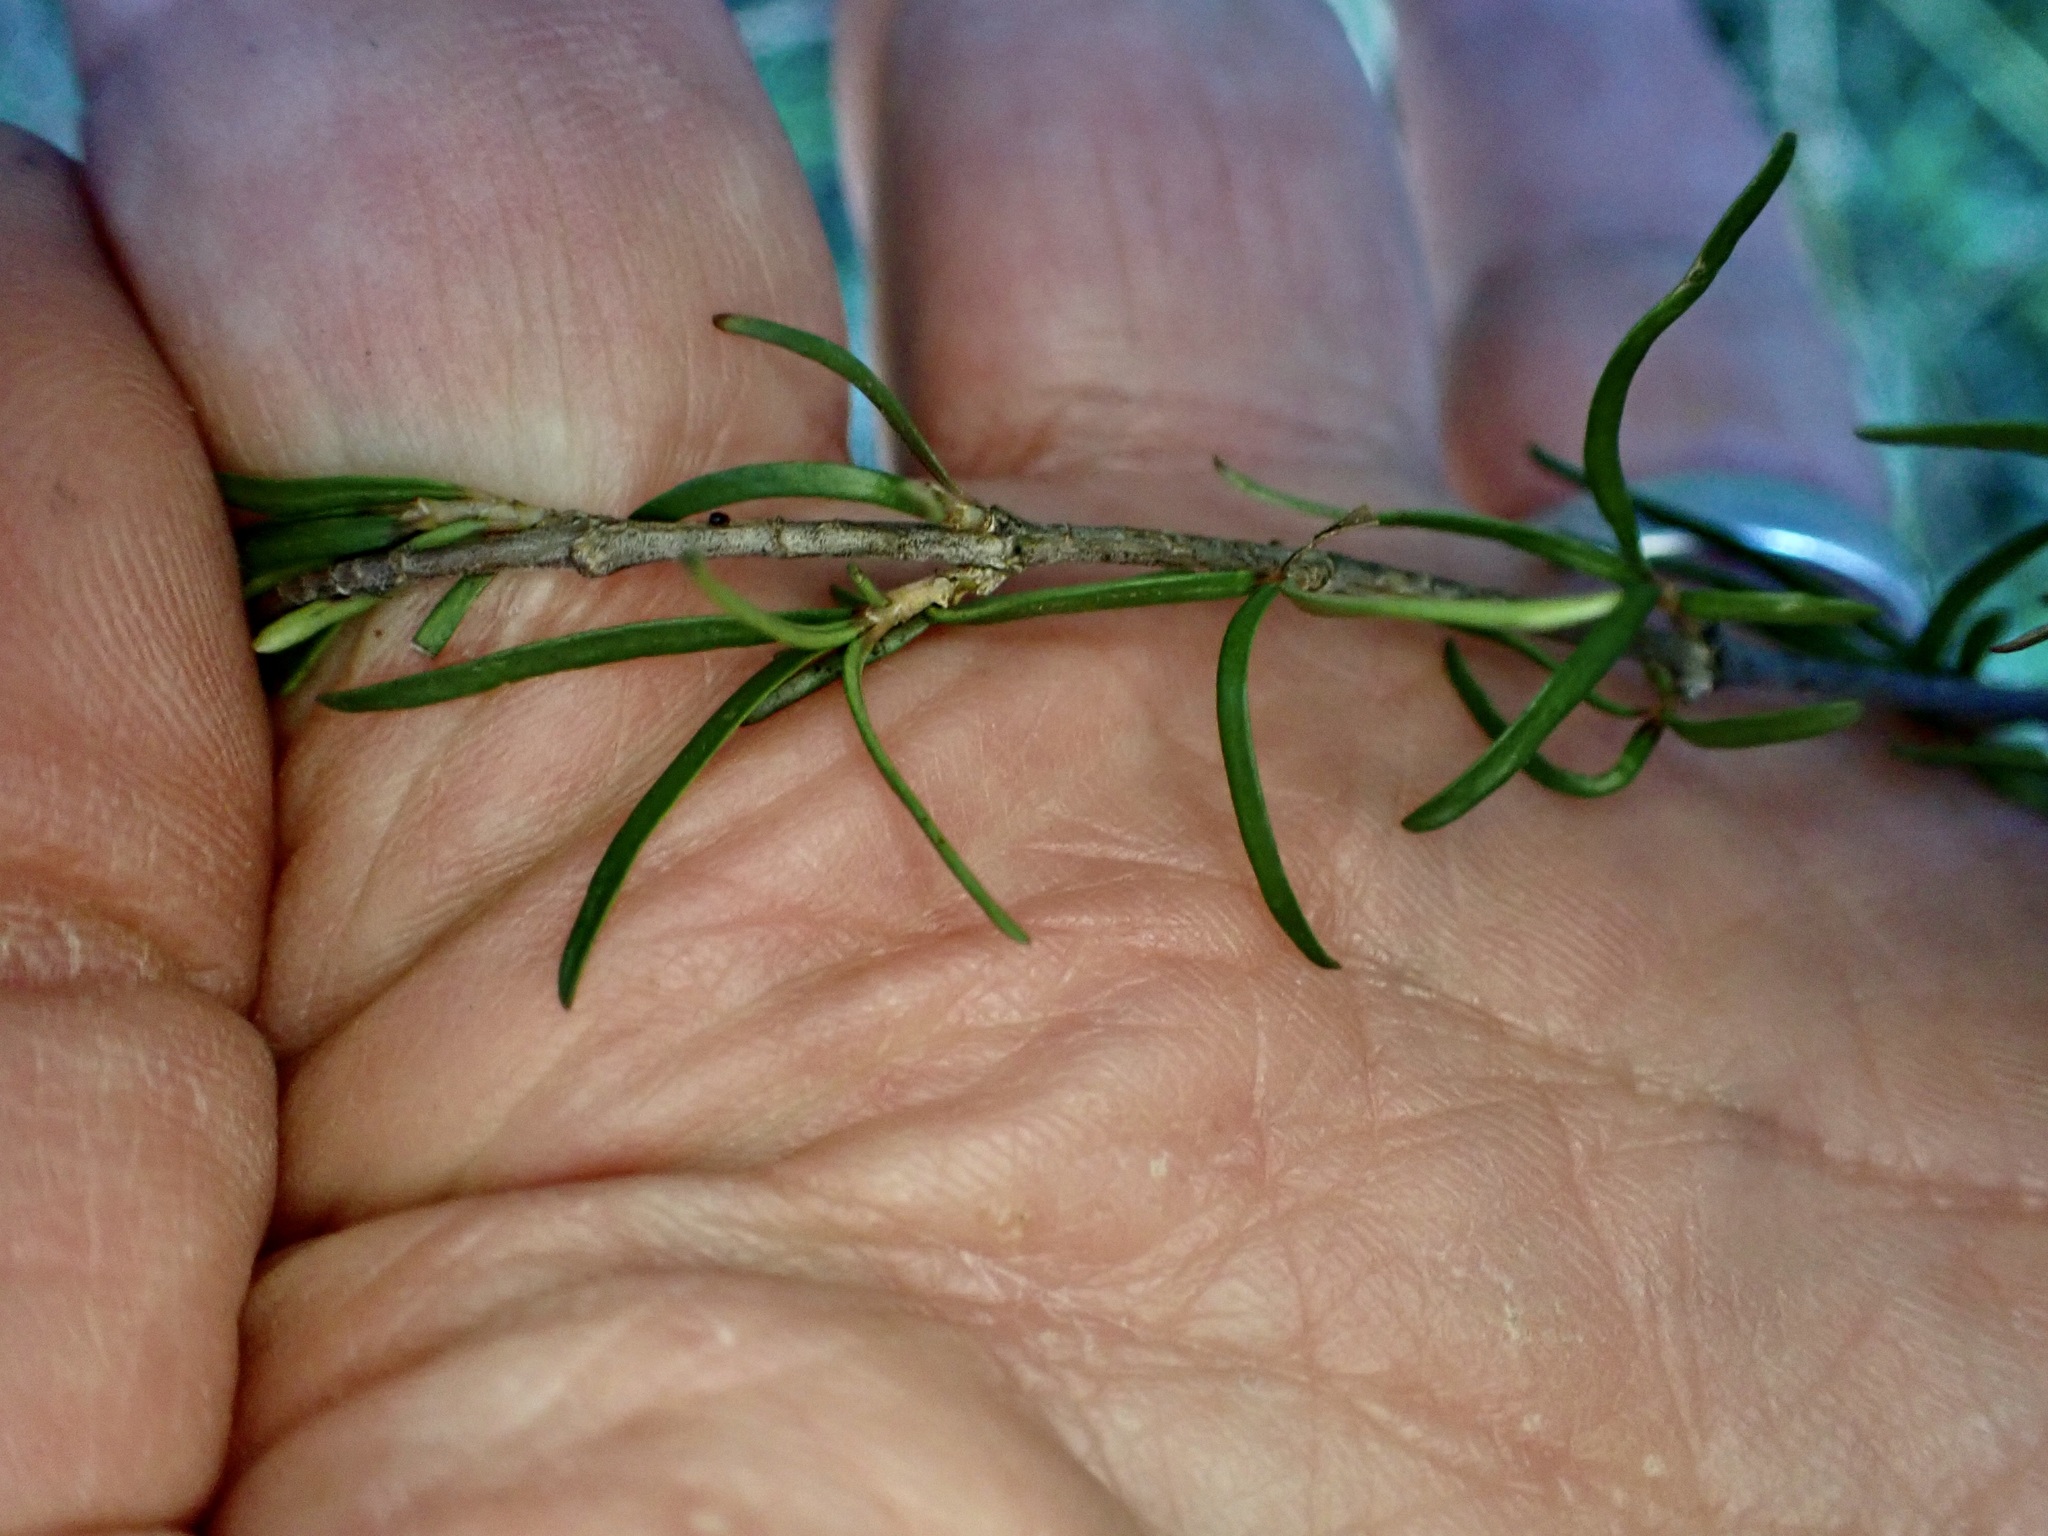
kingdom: Plantae
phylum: Tracheophyta
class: Magnoliopsida
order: Gentianales
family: Rubiaceae
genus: Coprosma
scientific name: Coprosma rugosa
